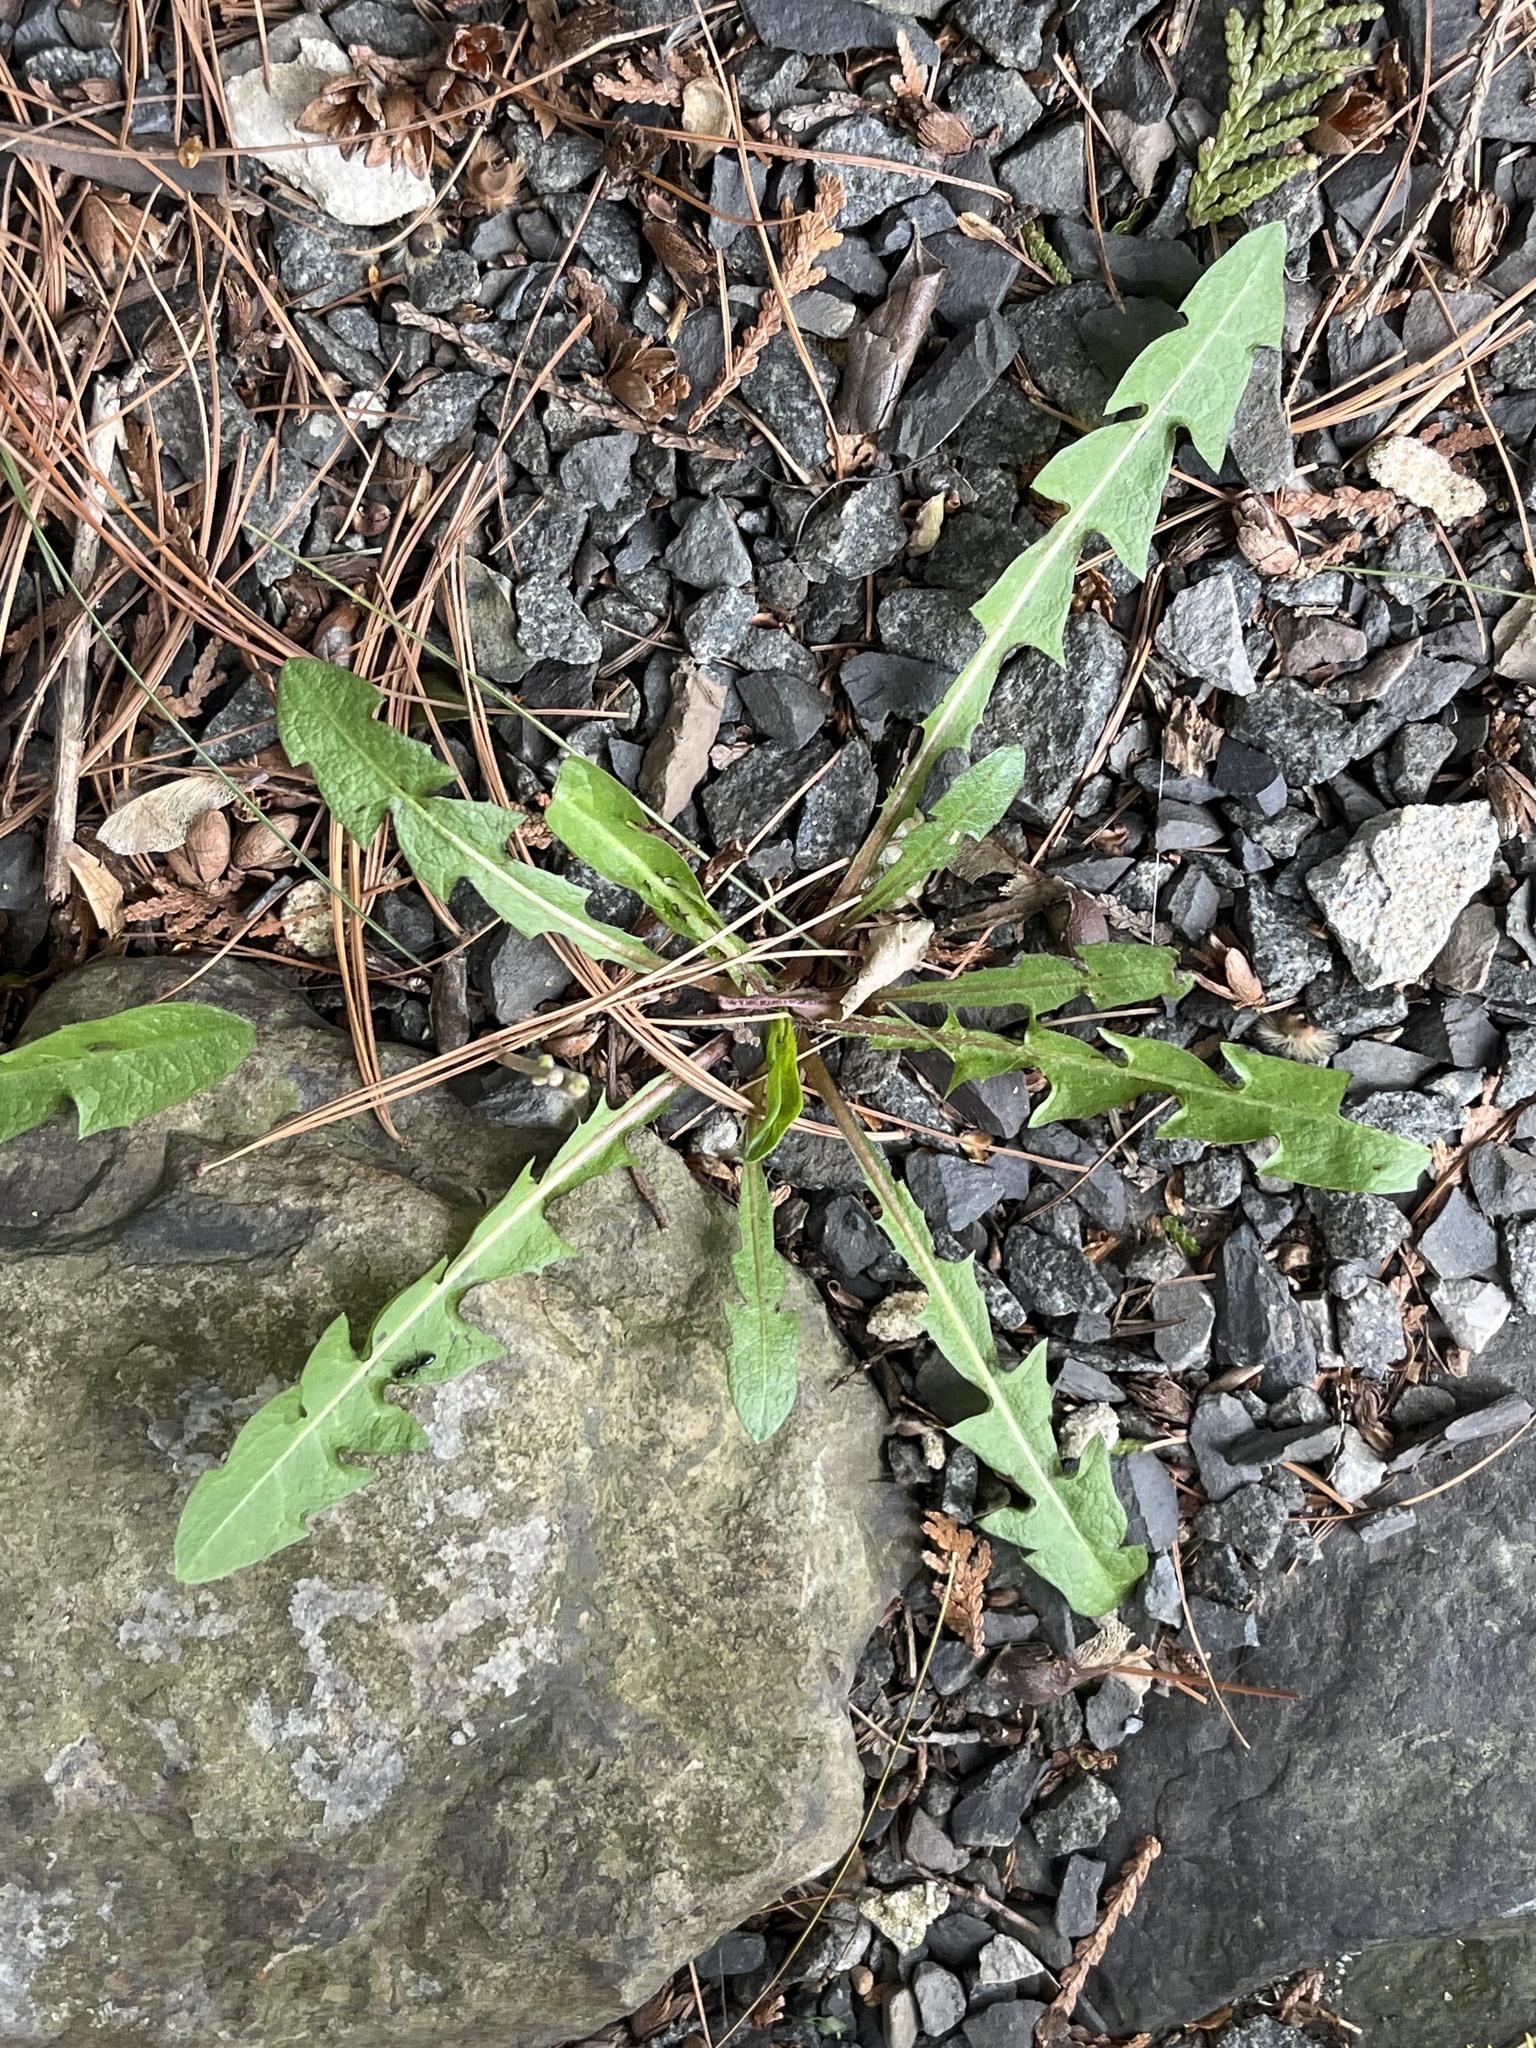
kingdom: Plantae
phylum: Tracheophyta
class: Magnoliopsida
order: Asterales
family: Asteraceae
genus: Taraxacum
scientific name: Taraxacum officinale
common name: Common dandelion
